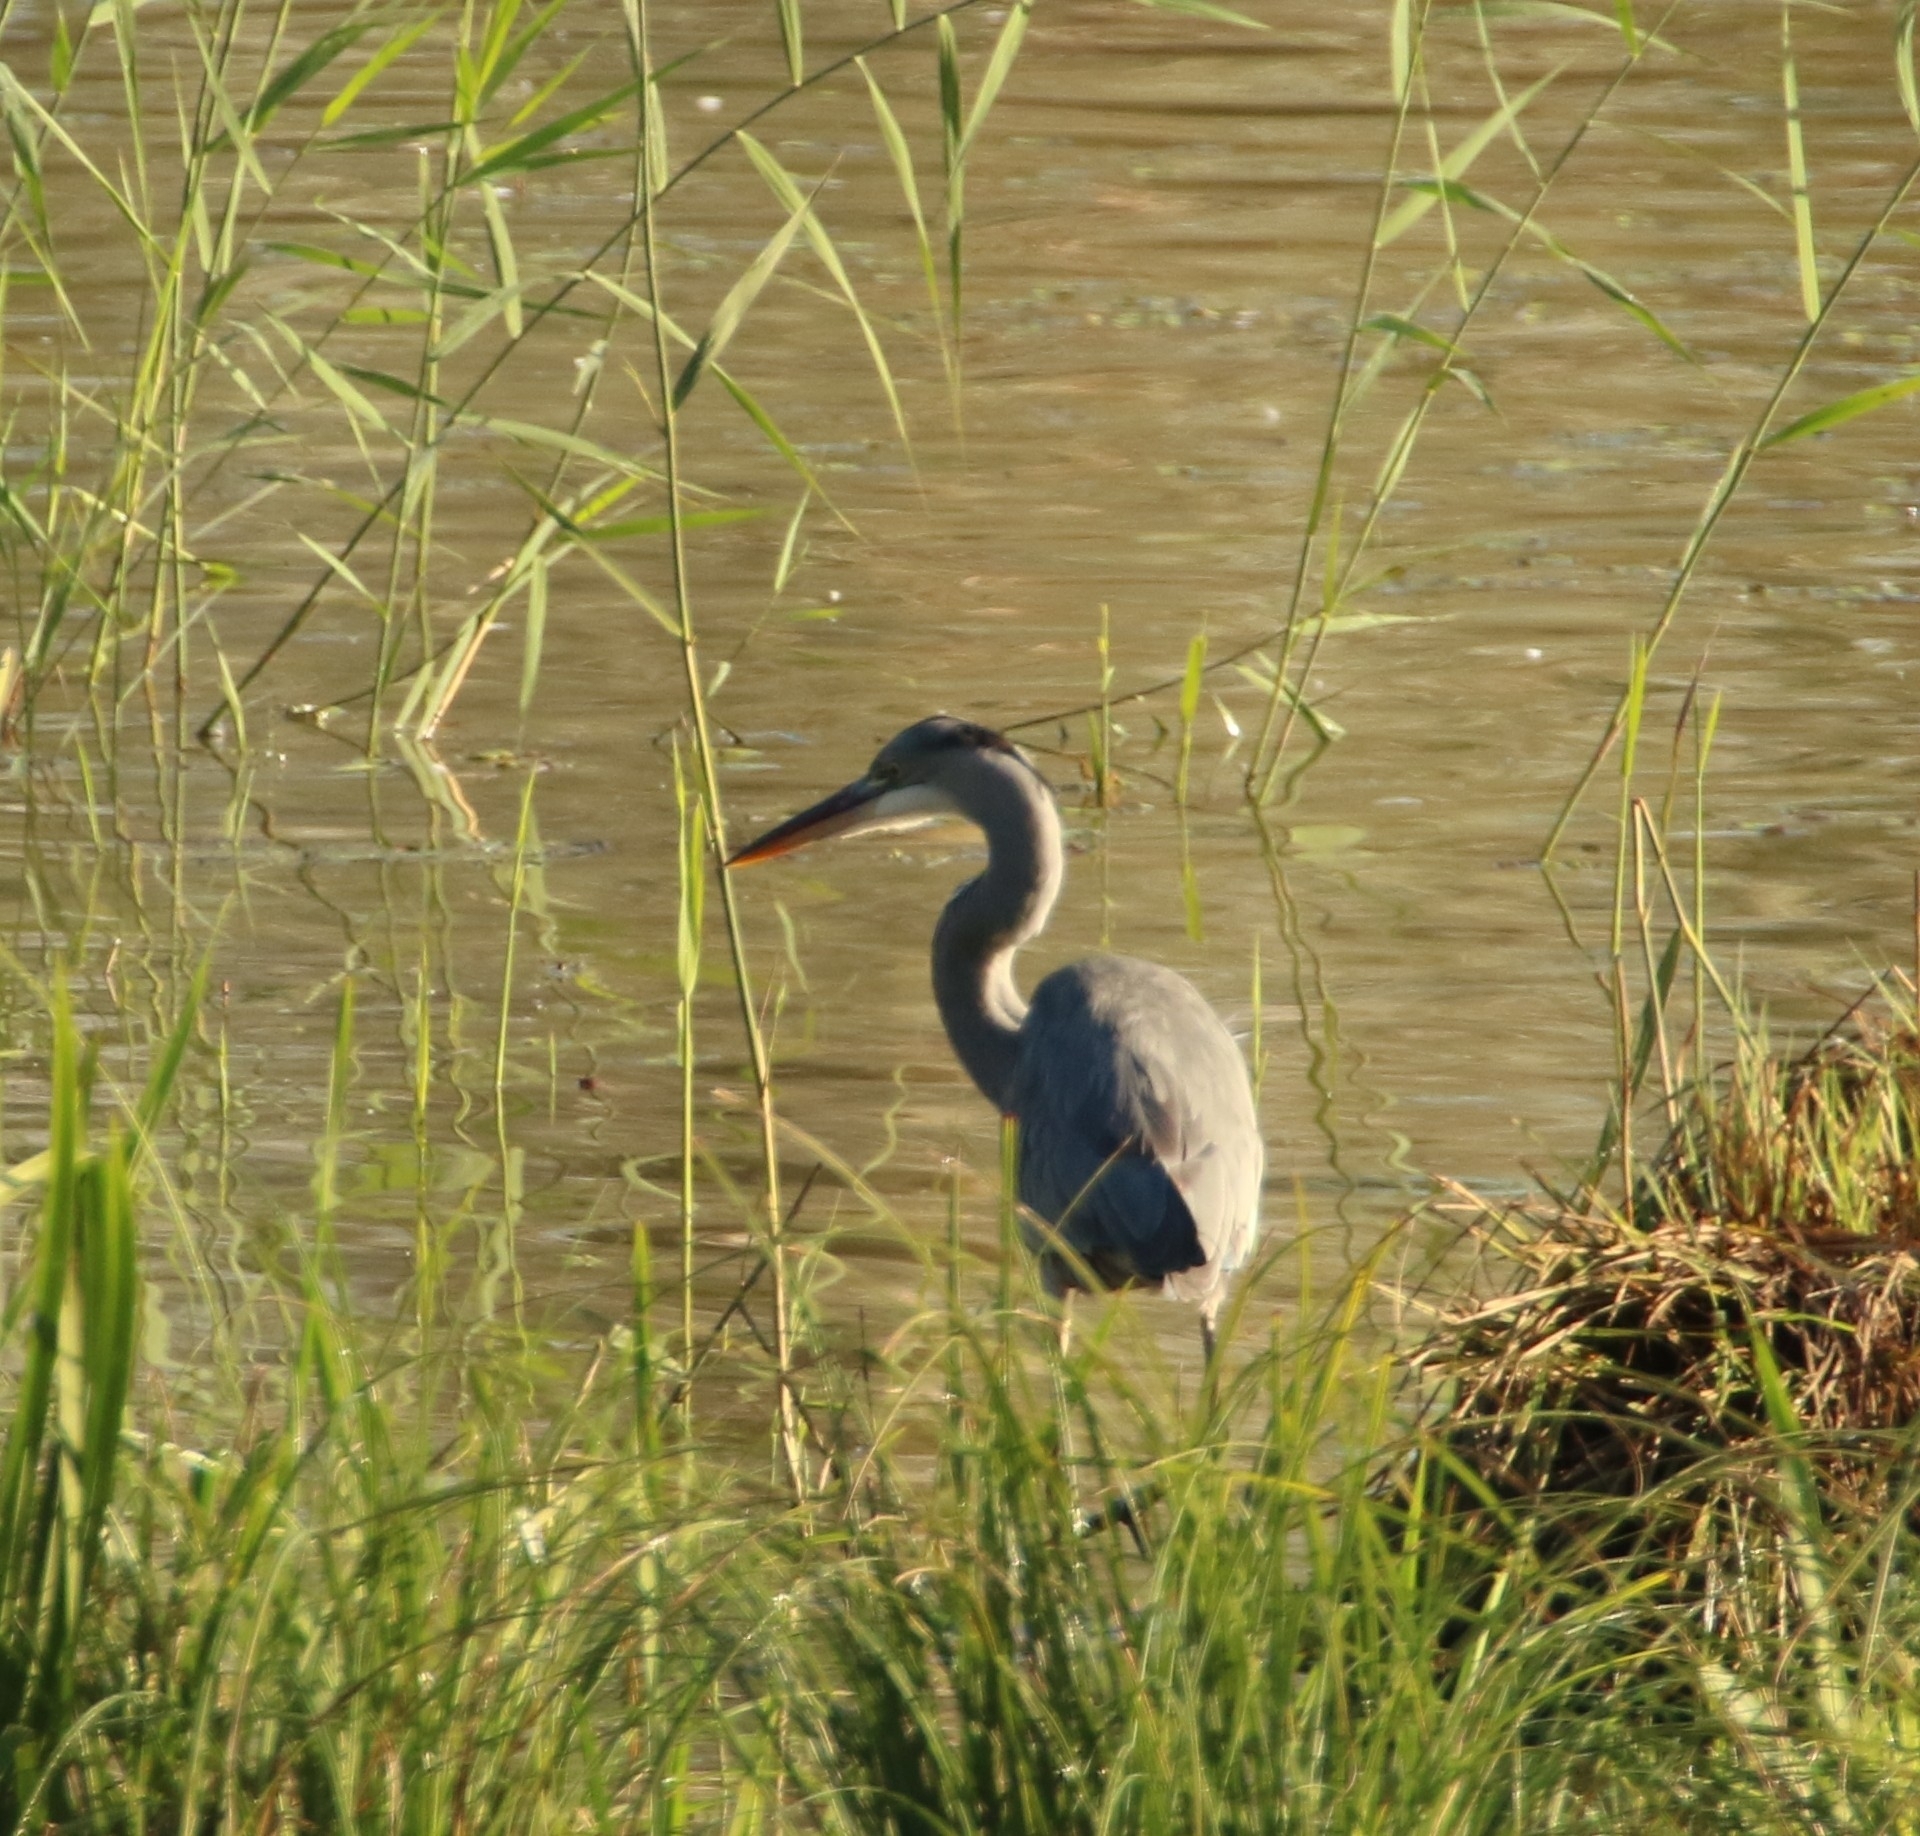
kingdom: Animalia
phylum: Chordata
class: Aves
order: Pelecaniformes
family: Ardeidae
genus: Ardea
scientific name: Ardea cinerea
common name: Grey heron
